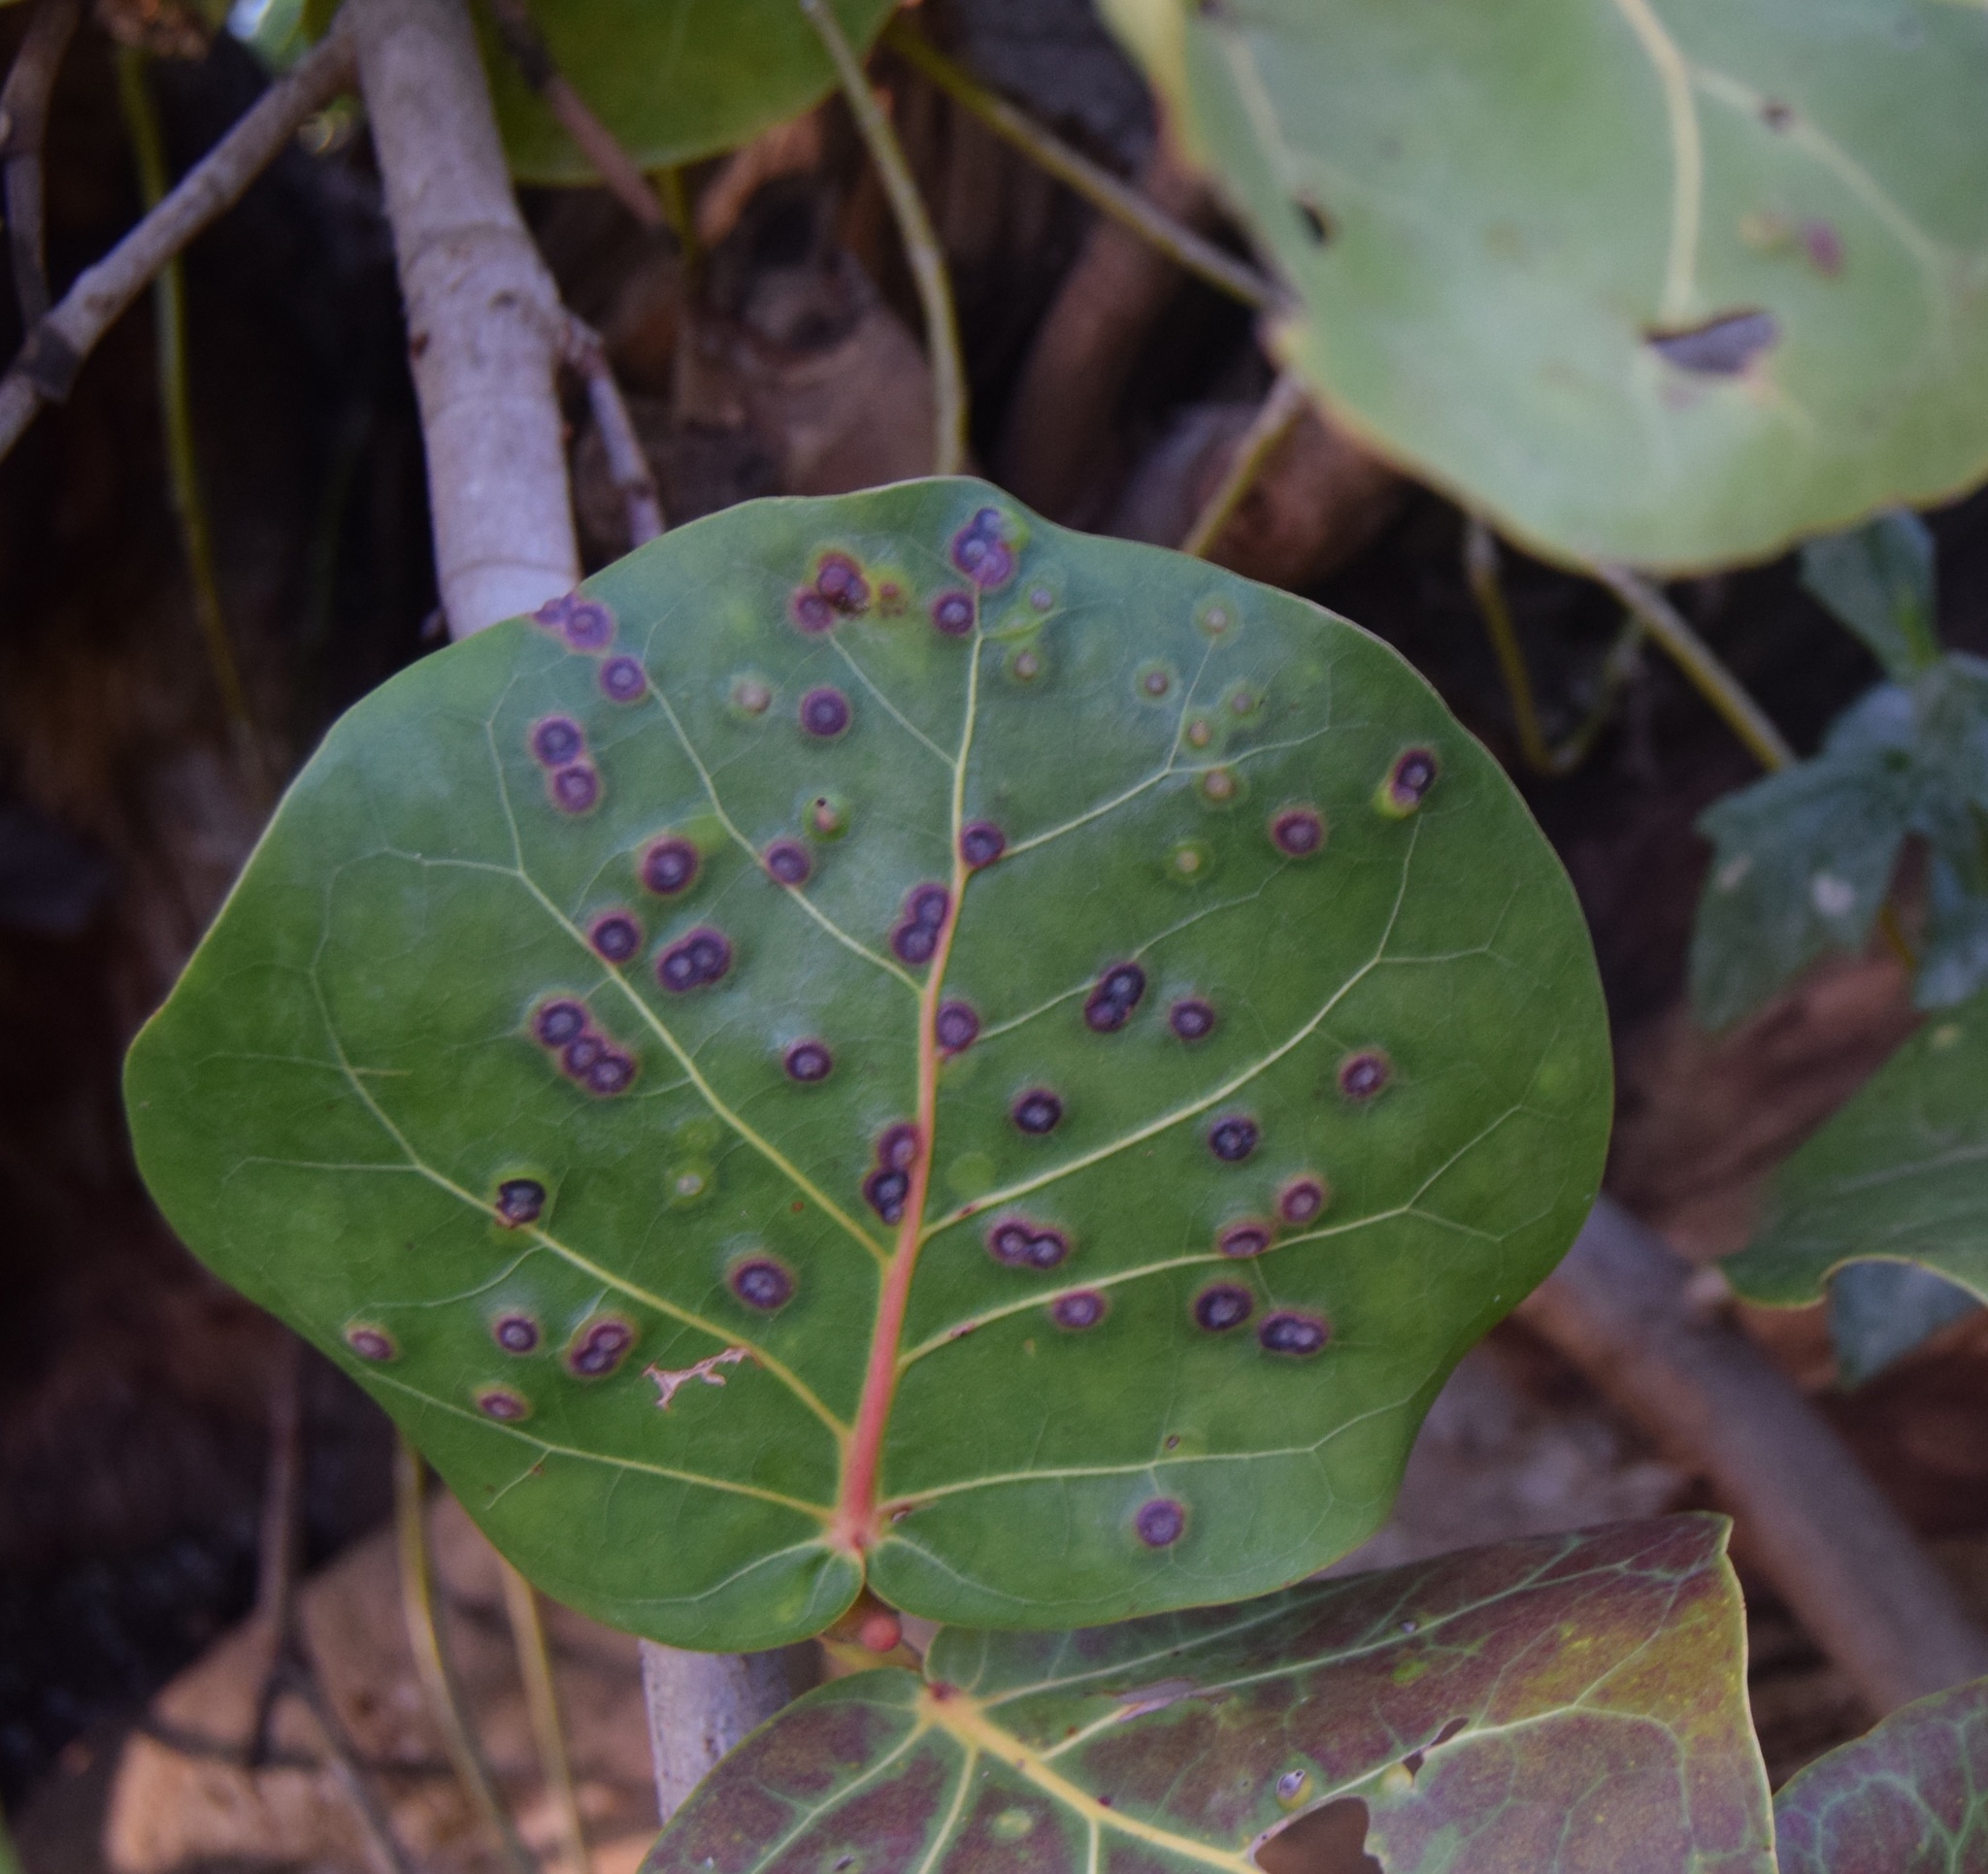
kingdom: Animalia
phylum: Arthropoda
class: Insecta
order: Diptera
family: Cecidomyiidae
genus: Ctenodactylomyia
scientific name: Ctenodactylomyia watsoni
